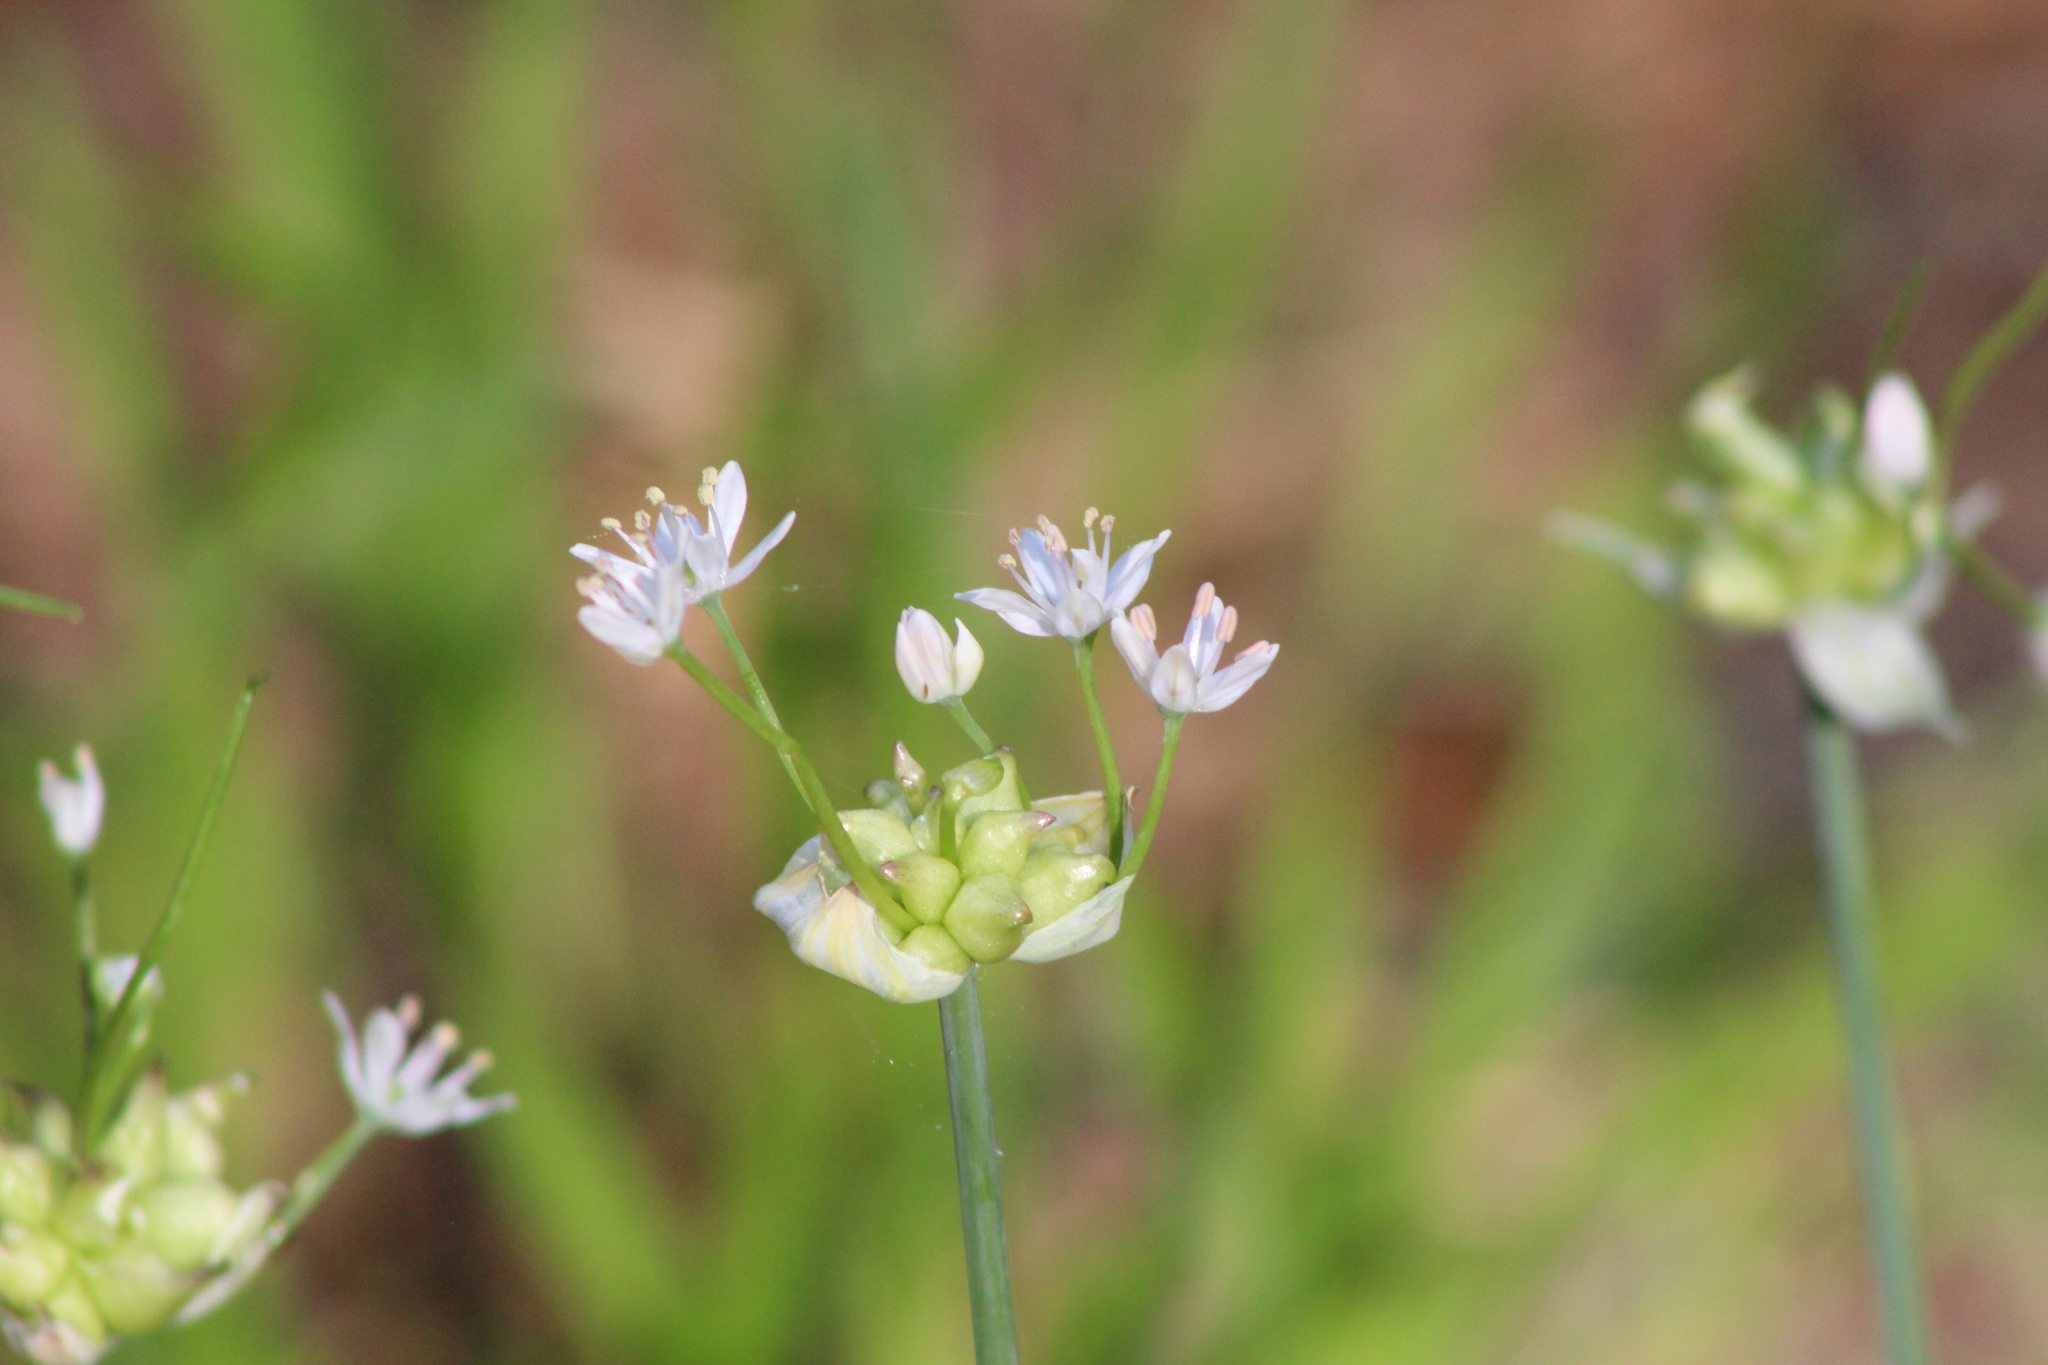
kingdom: Plantae
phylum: Tracheophyta
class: Liliopsida
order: Asparagales
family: Amaryllidaceae
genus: Allium
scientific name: Allium canadense
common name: Meadow garlic
